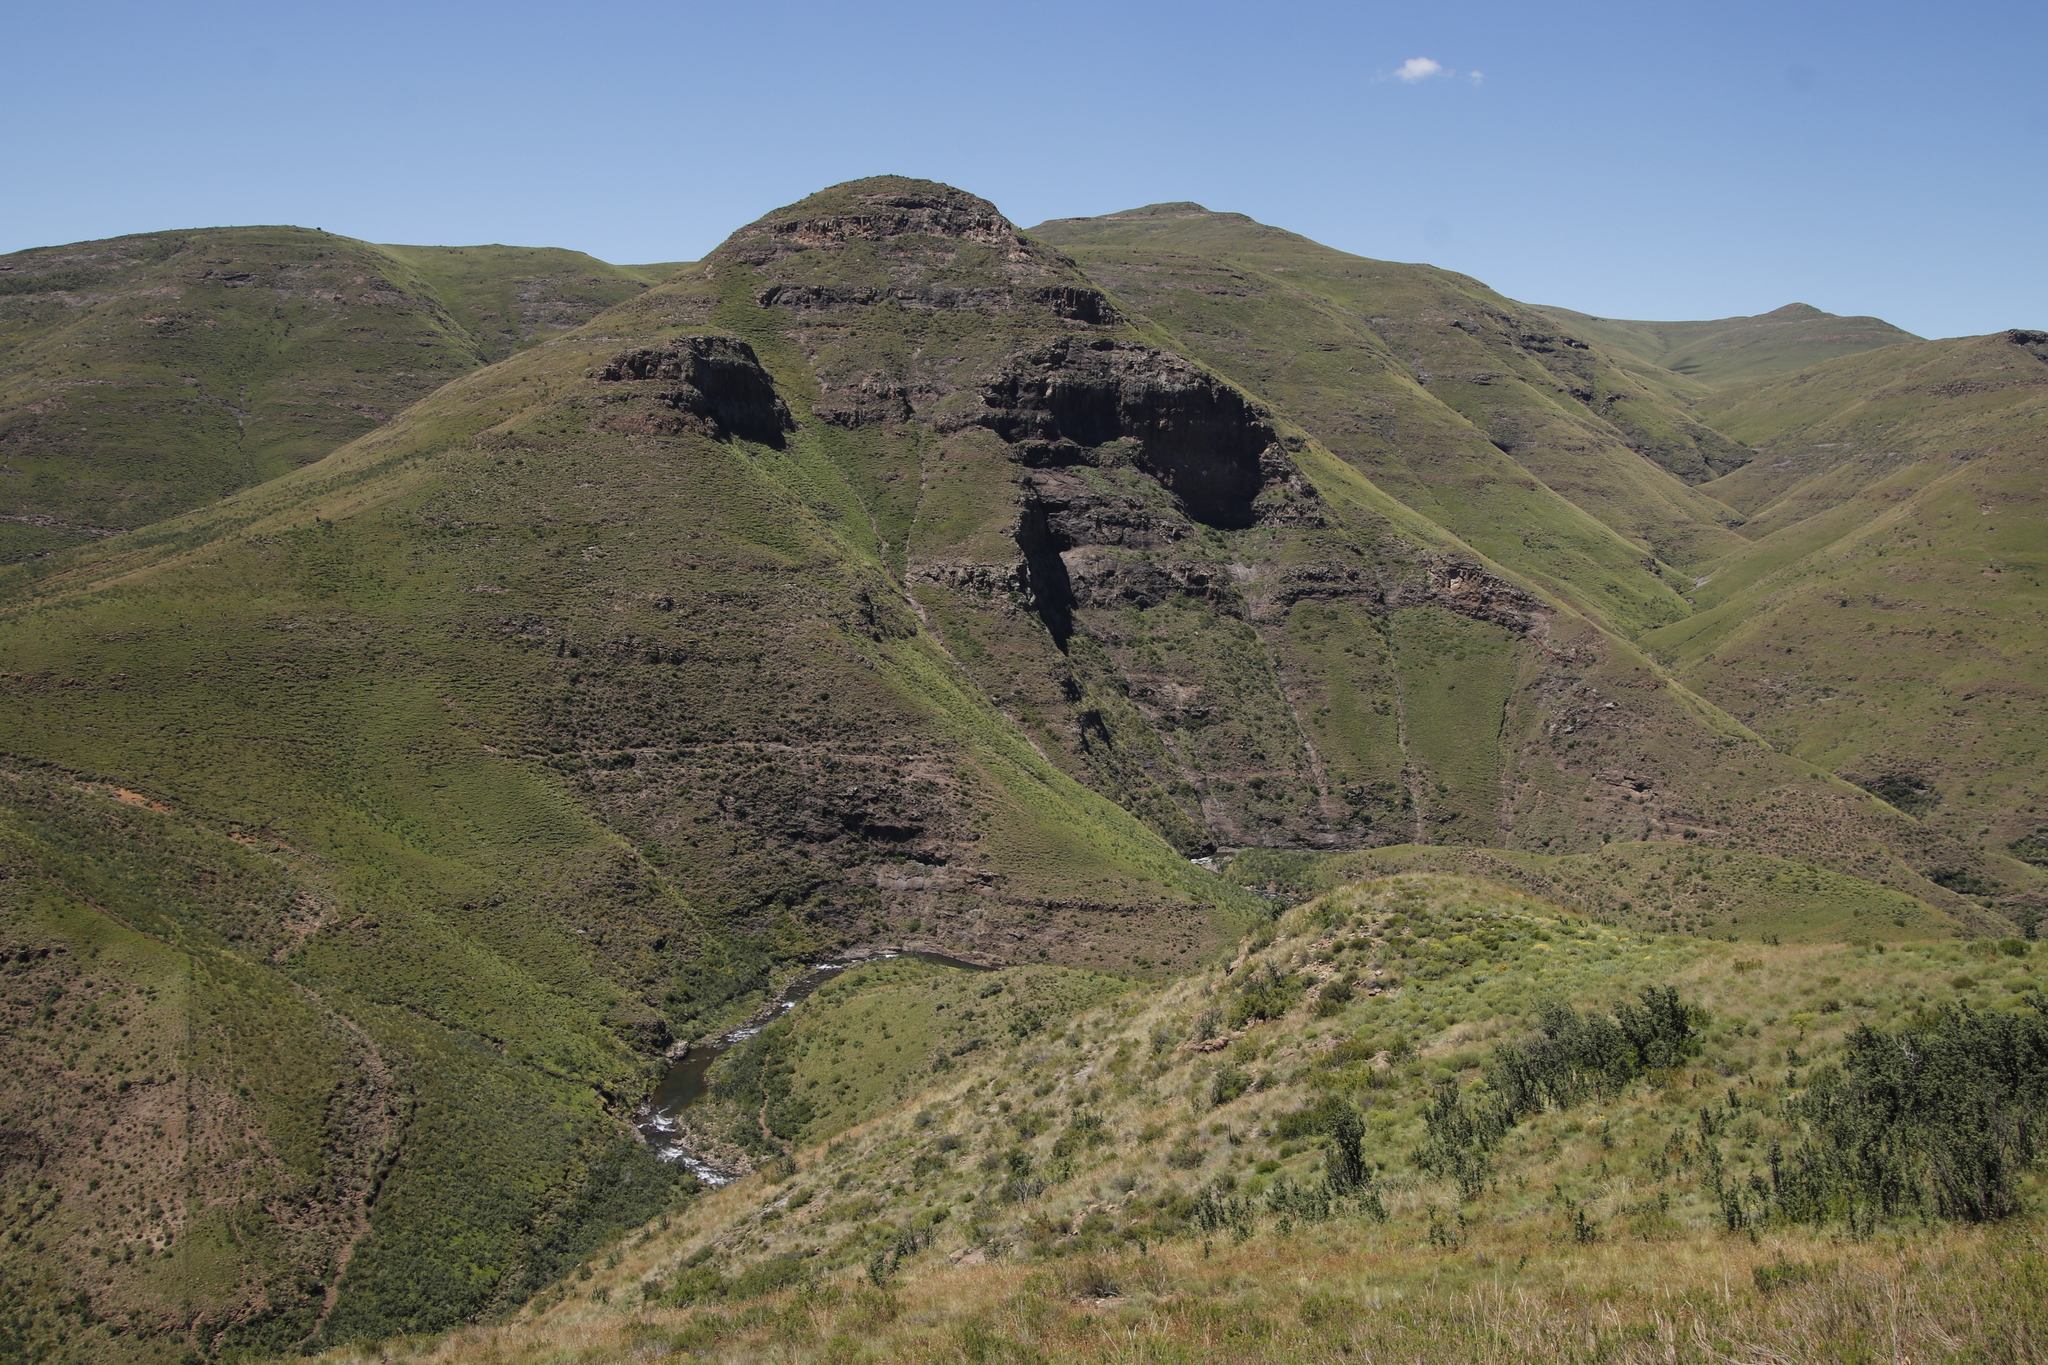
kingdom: Animalia
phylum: Chordata
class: Aves
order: Pelecaniformes
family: Threskiornithidae
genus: Geronticus
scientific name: Geronticus calvus
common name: Southern bald ibis
